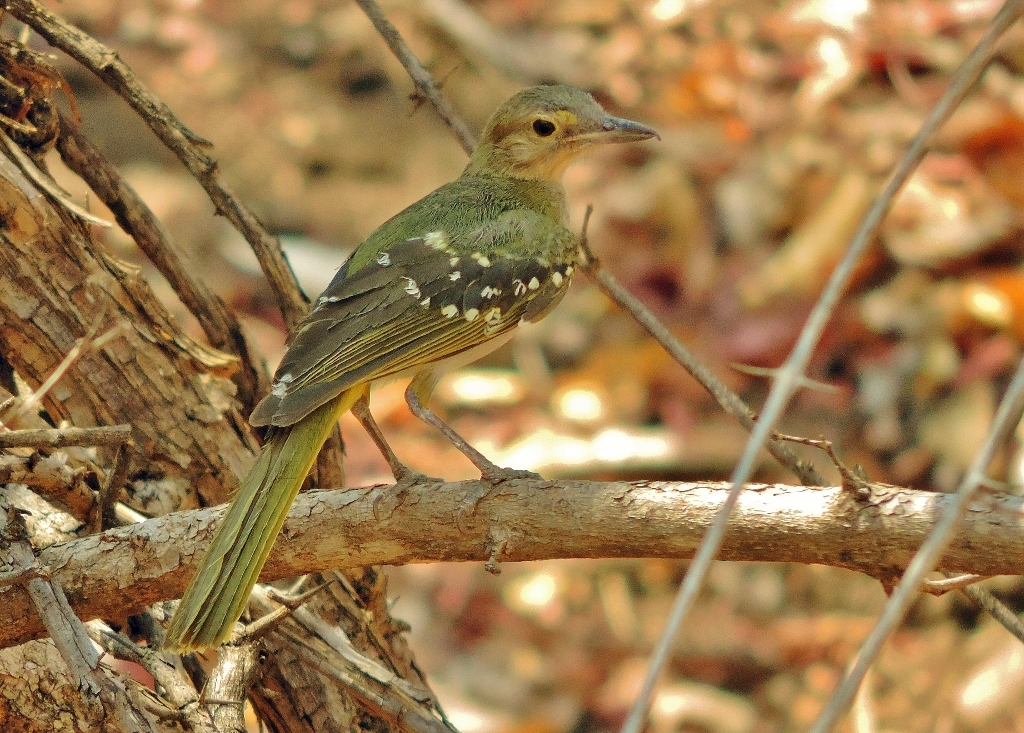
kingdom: Animalia
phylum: Chordata
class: Aves
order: Passeriformes
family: Nicatoridae
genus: Nicator
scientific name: Nicator gularis
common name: Eastern nicator
